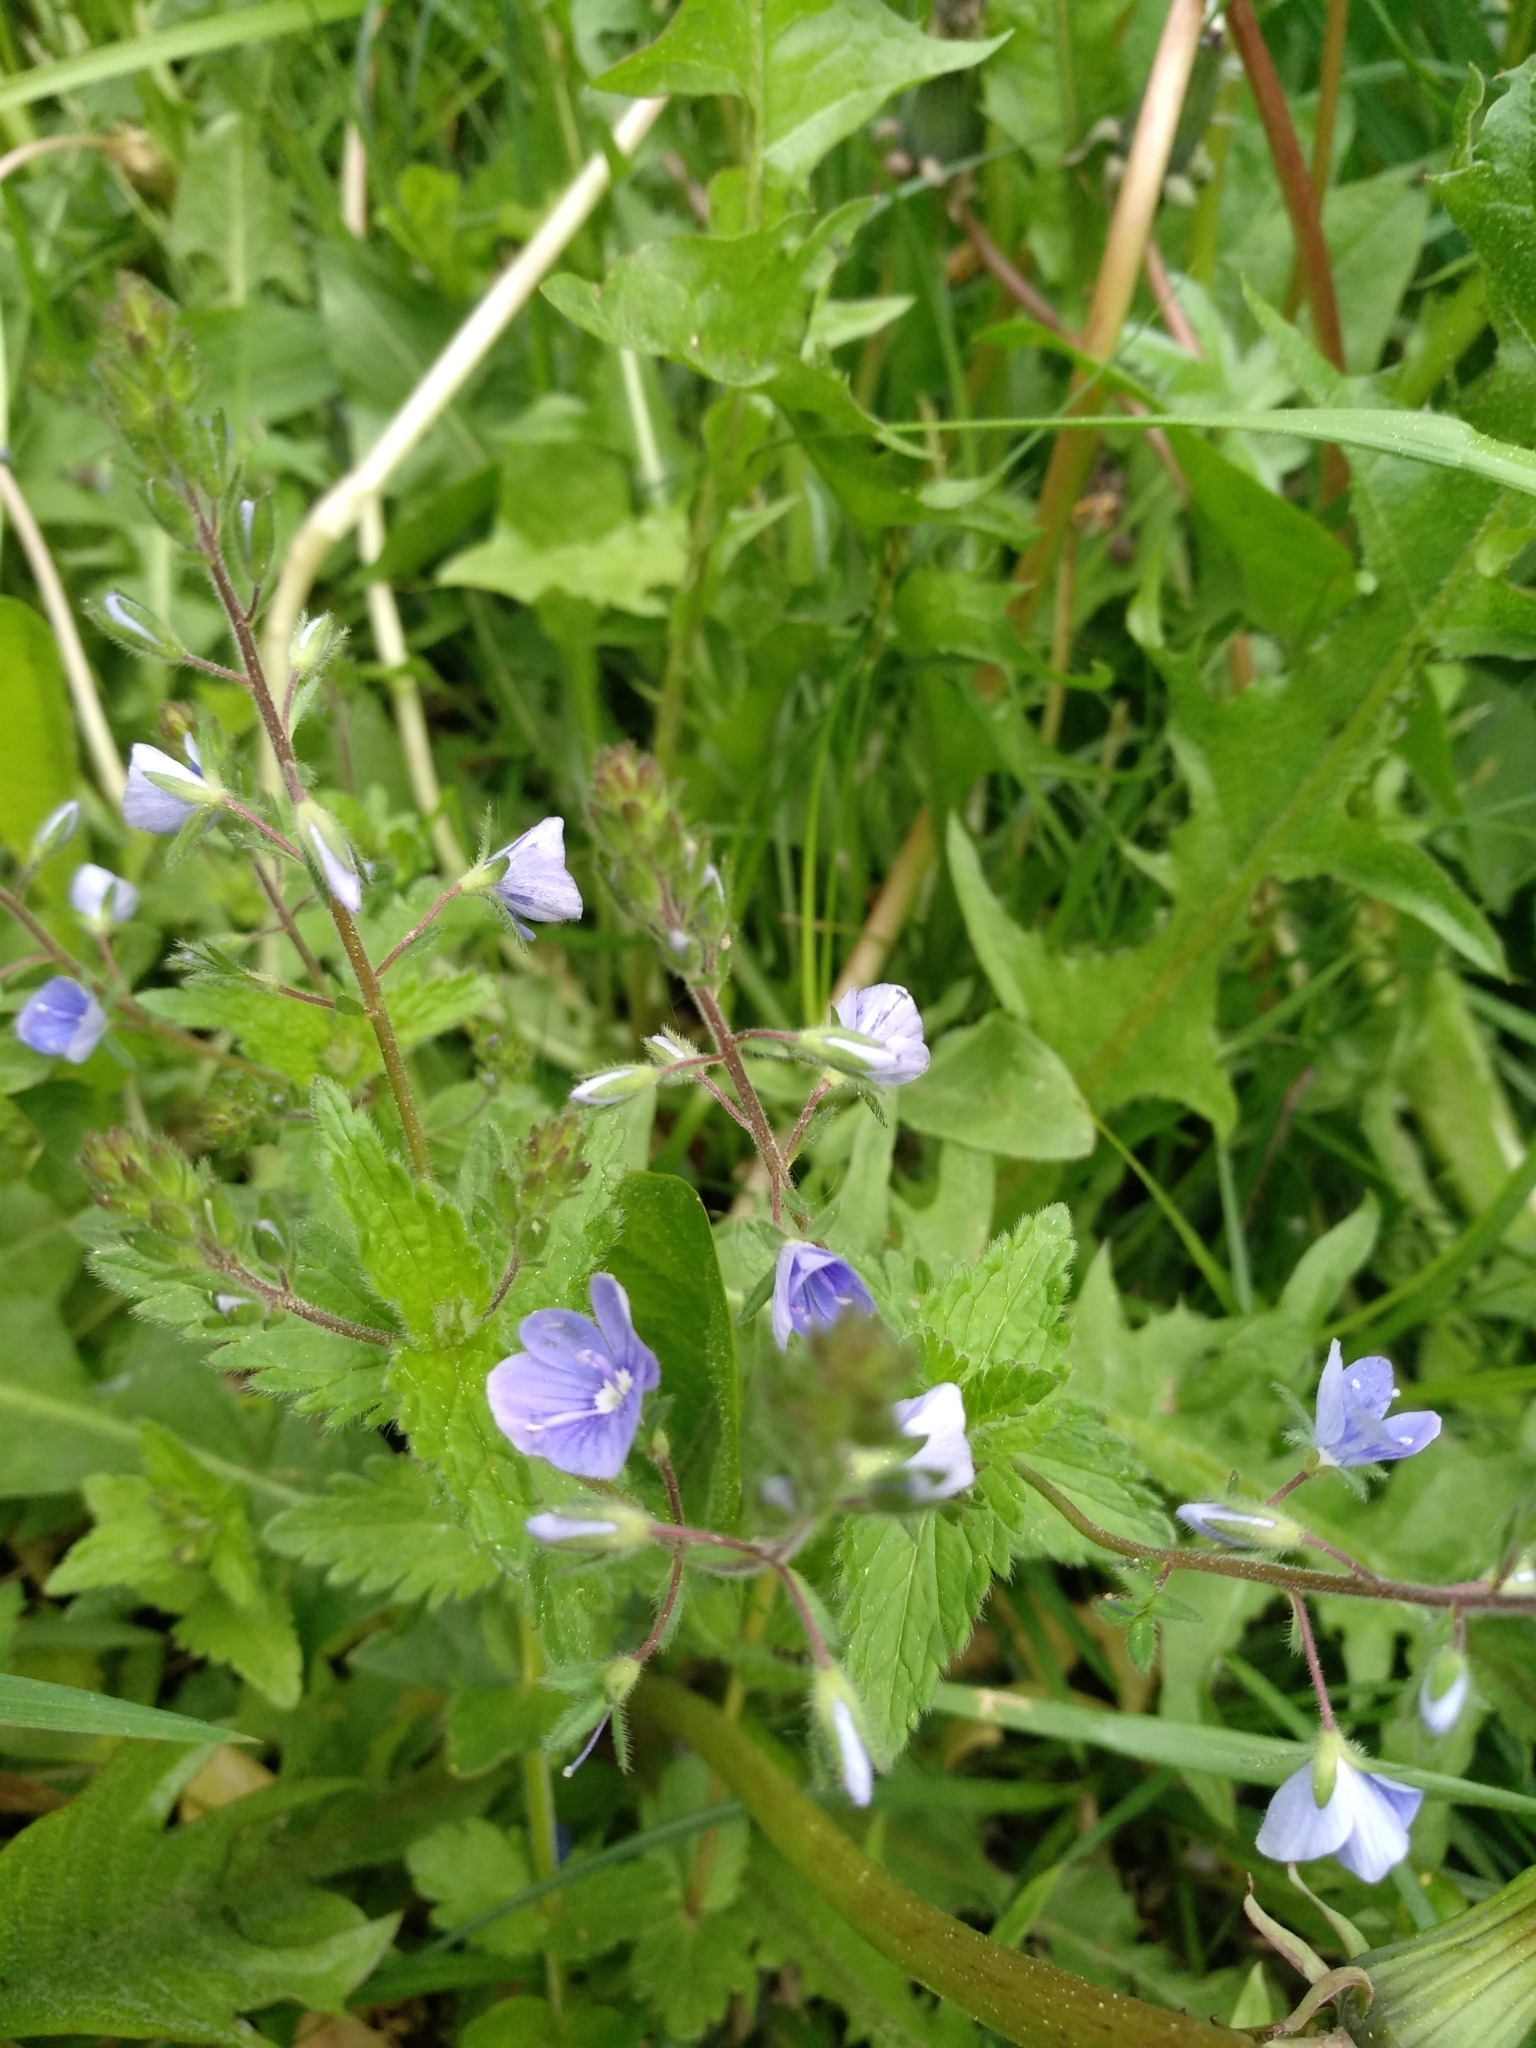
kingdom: Plantae
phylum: Tracheophyta
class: Magnoliopsida
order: Lamiales
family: Plantaginaceae
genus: Veronica
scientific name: Veronica chamaedrys
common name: Germander speedwell
